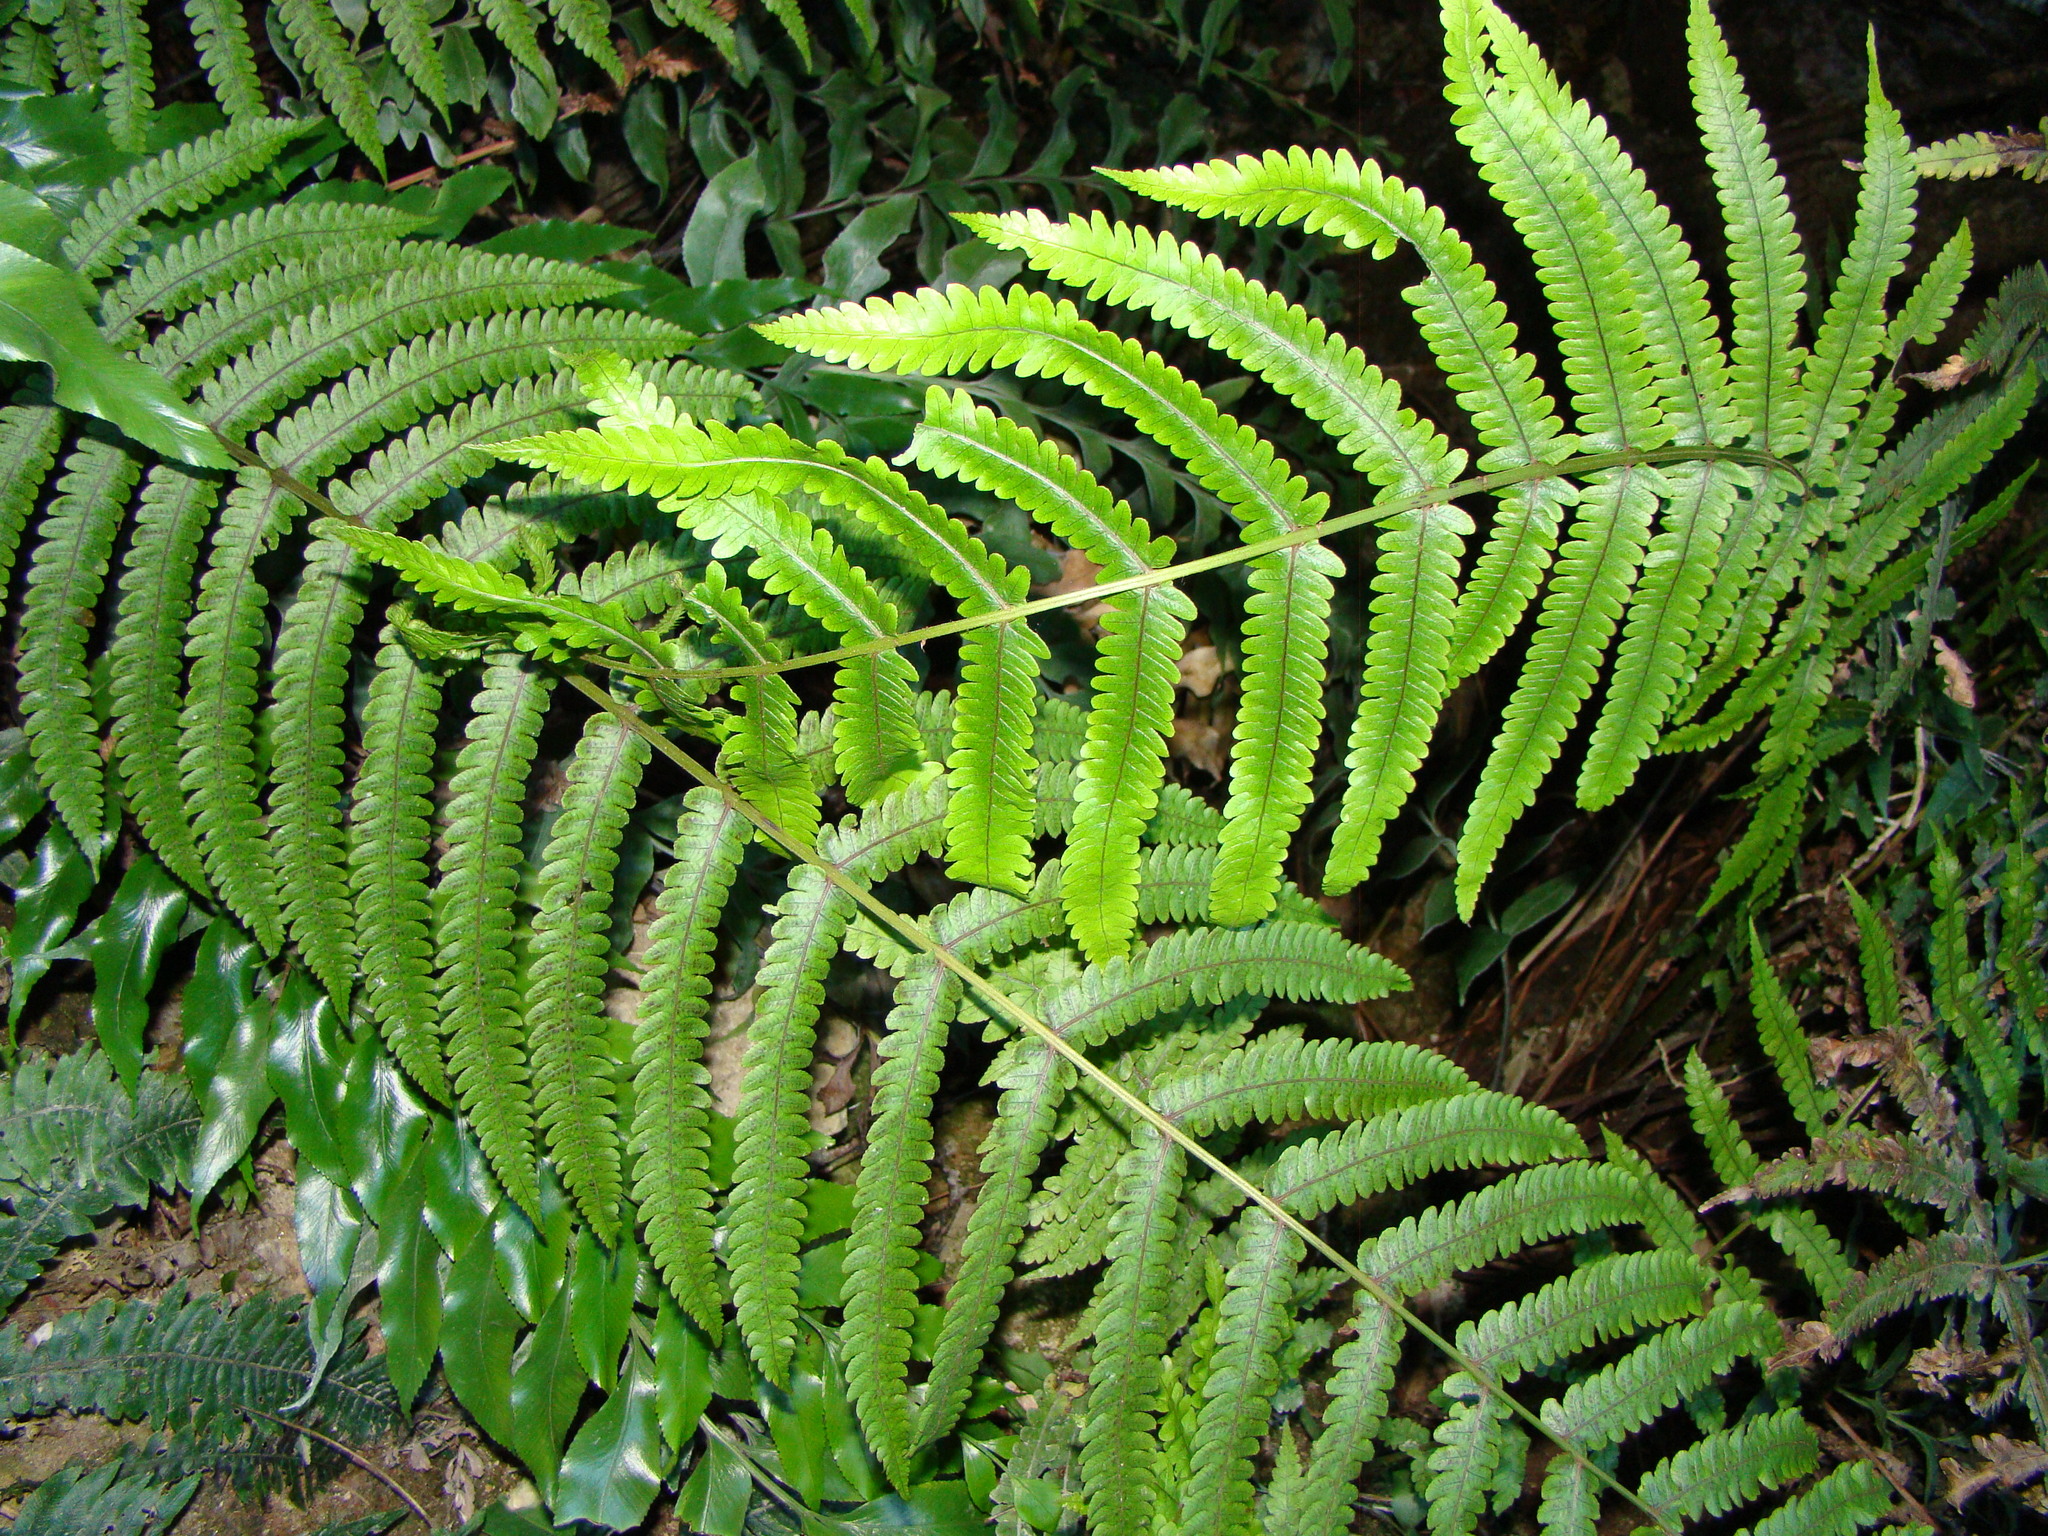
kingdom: Plantae
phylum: Tracheophyta
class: Polypodiopsida
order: Polypodiales
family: Thelypteridaceae
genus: Pakau
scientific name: Pakau pennigera
